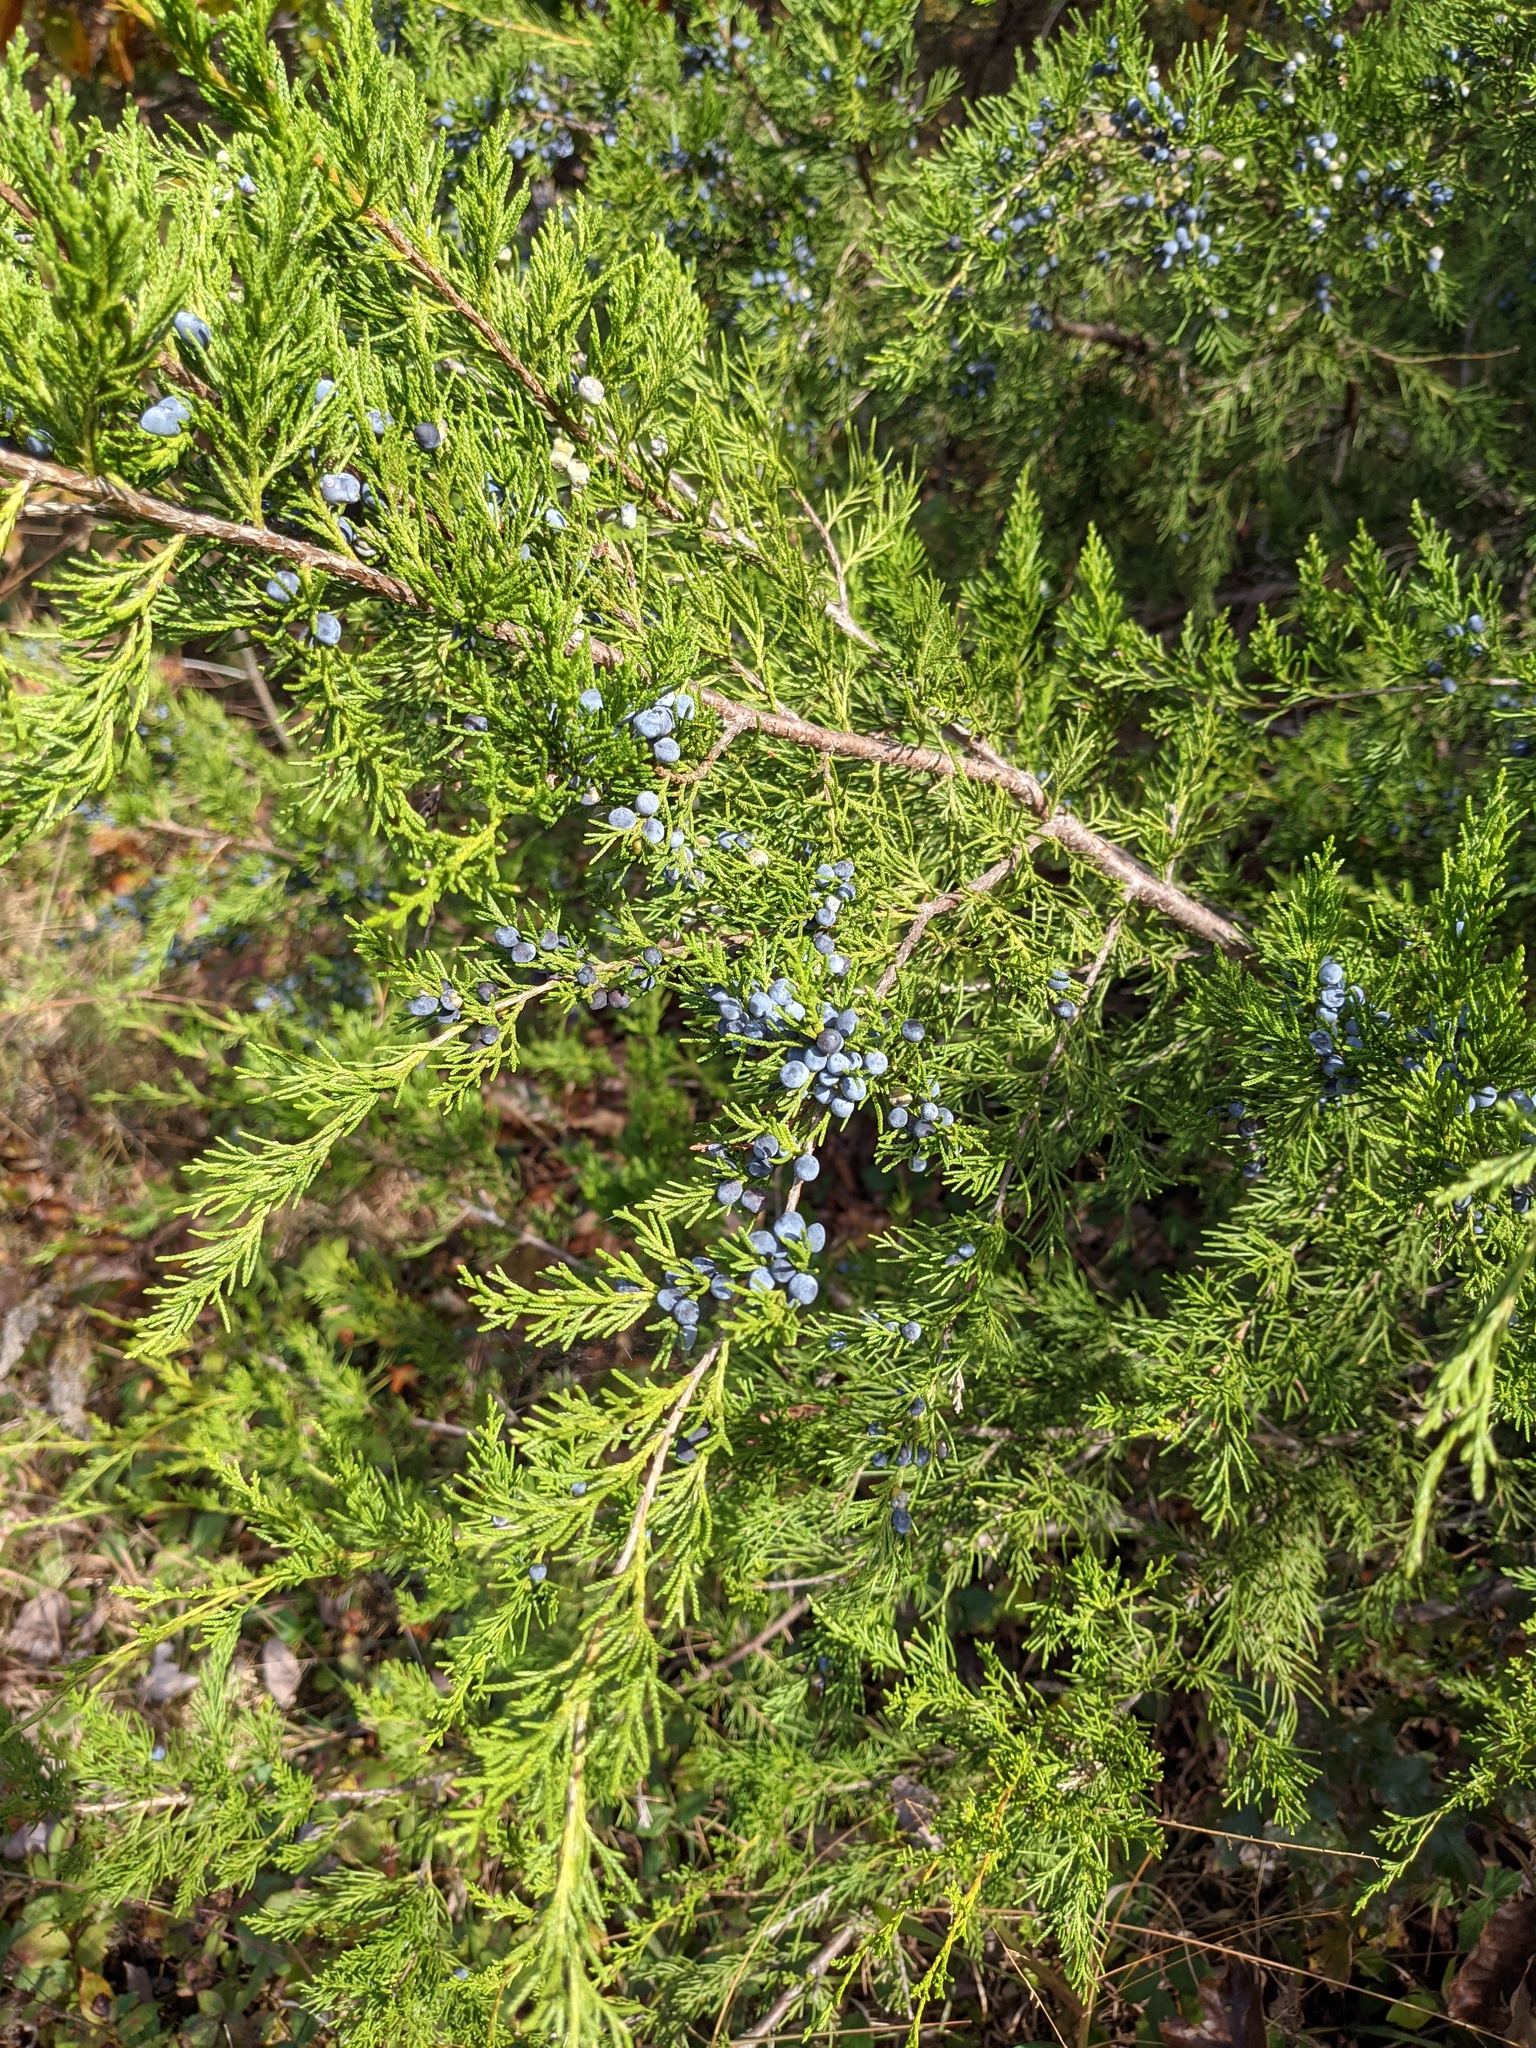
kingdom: Plantae
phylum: Tracheophyta
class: Pinopsida
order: Pinales
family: Cupressaceae
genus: Juniperus
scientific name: Juniperus virginiana
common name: Red juniper
